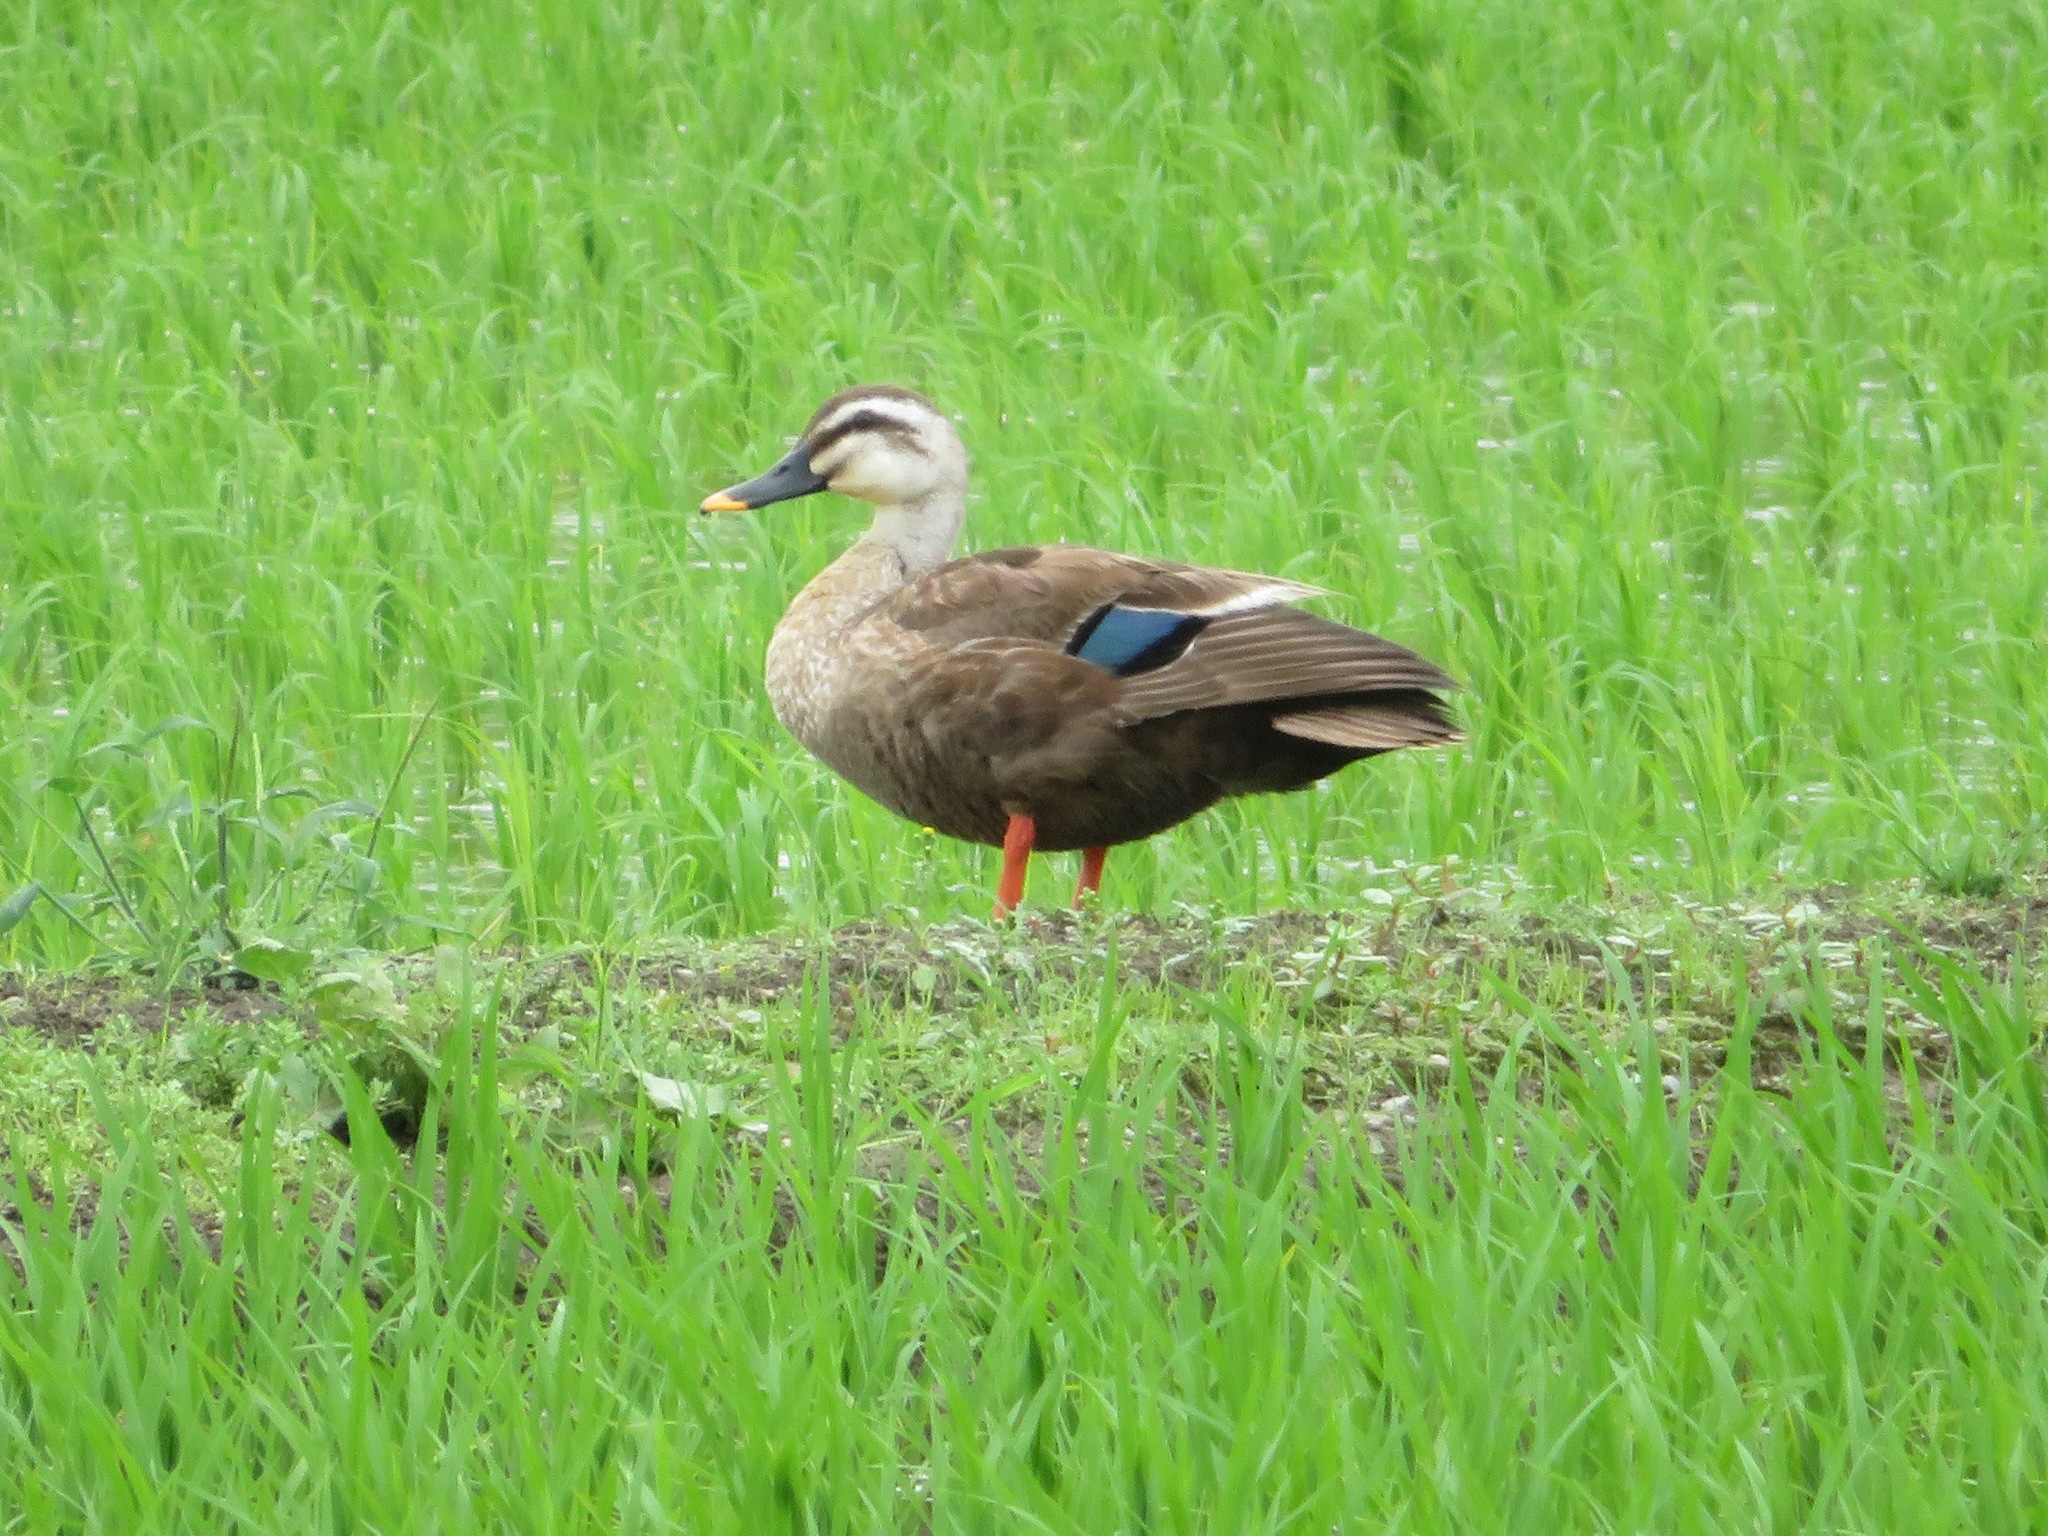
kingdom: Animalia
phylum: Chordata
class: Aves
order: Anseriformes
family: Anatidae
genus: Anas
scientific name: Anas zonorhyncha
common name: Eastern spot-billed duck
